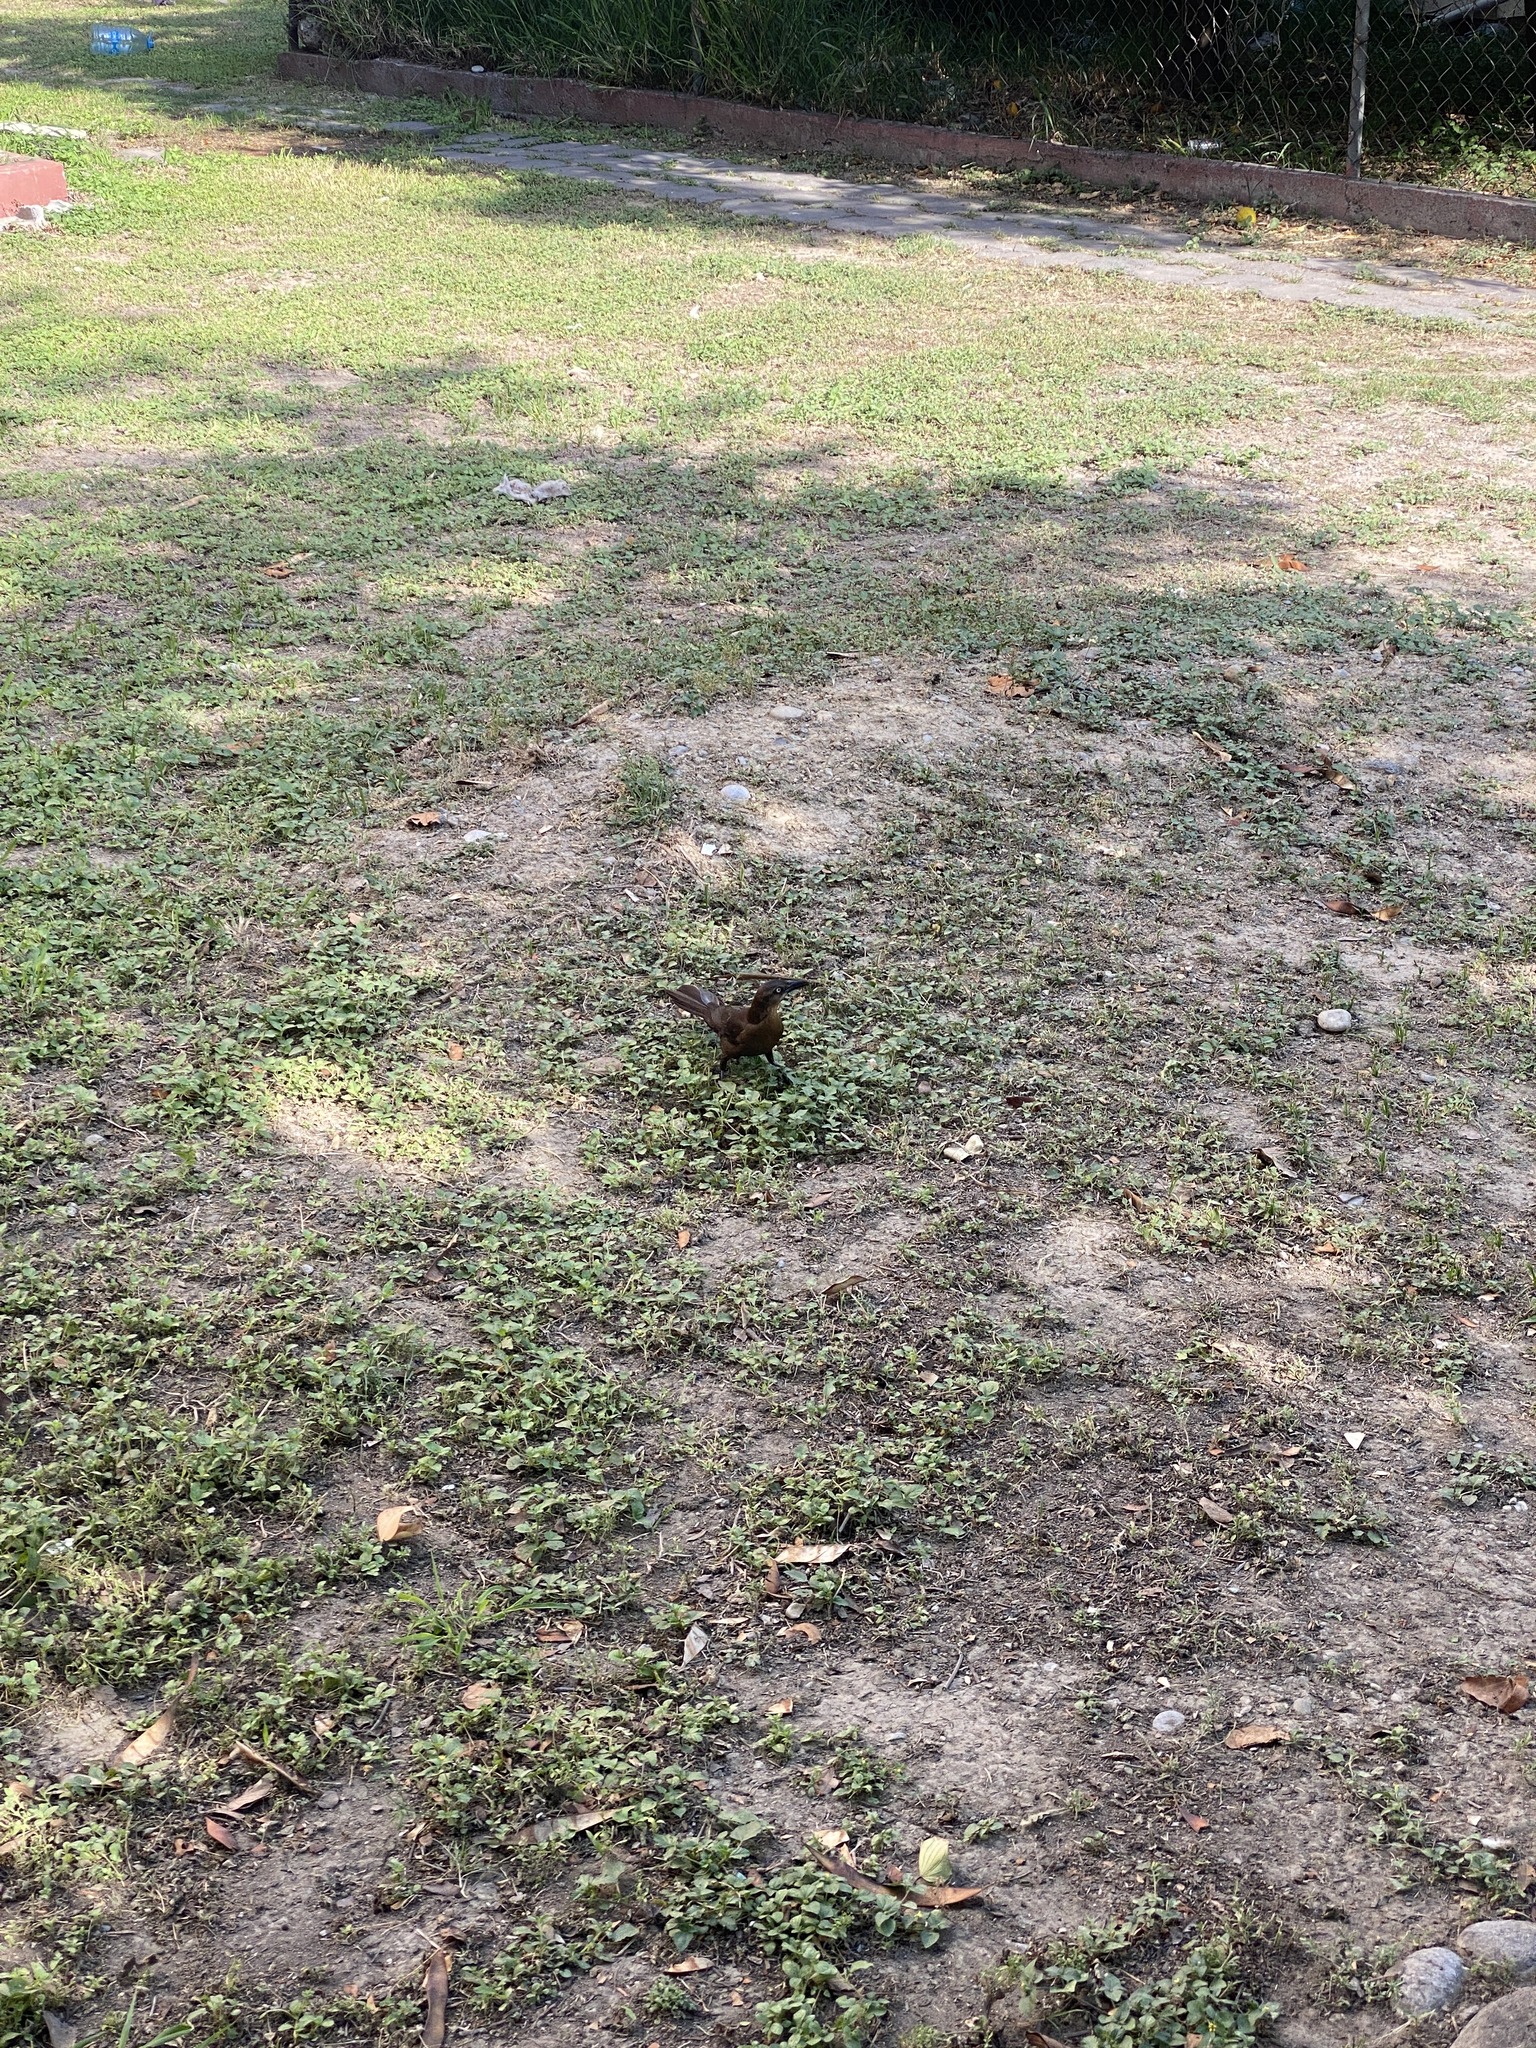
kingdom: Animalia
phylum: Chordata
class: Aves
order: Passeriformes
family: Icteridae
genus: Quiscalus
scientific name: Quiscalus mexicanus
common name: Great-tailed grackle
